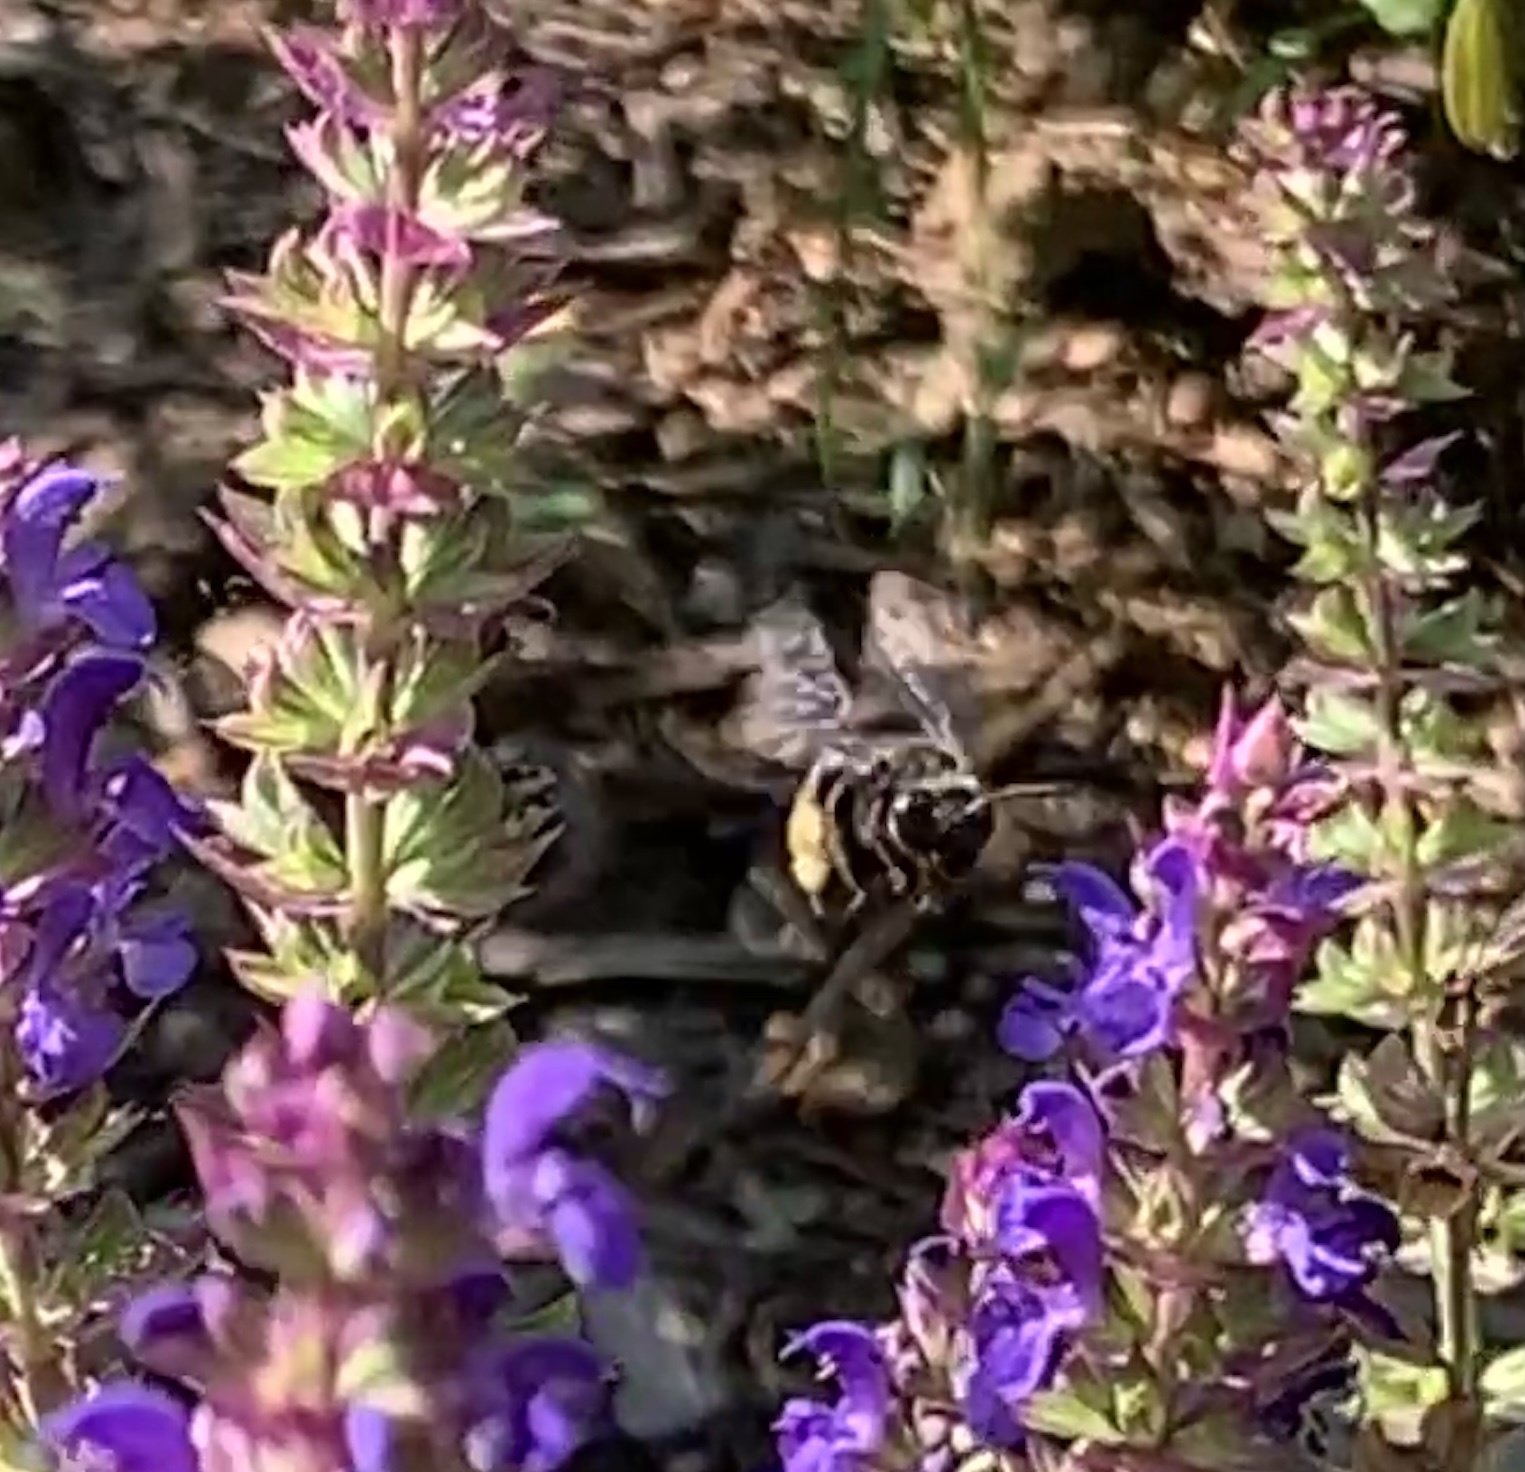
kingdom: Animalia
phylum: Arthropoda
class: Insecta
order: Hymenoptera
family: Apidae
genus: Melissodes
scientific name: Melissodes bimaculatus
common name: Two-spotted long-horned bee
